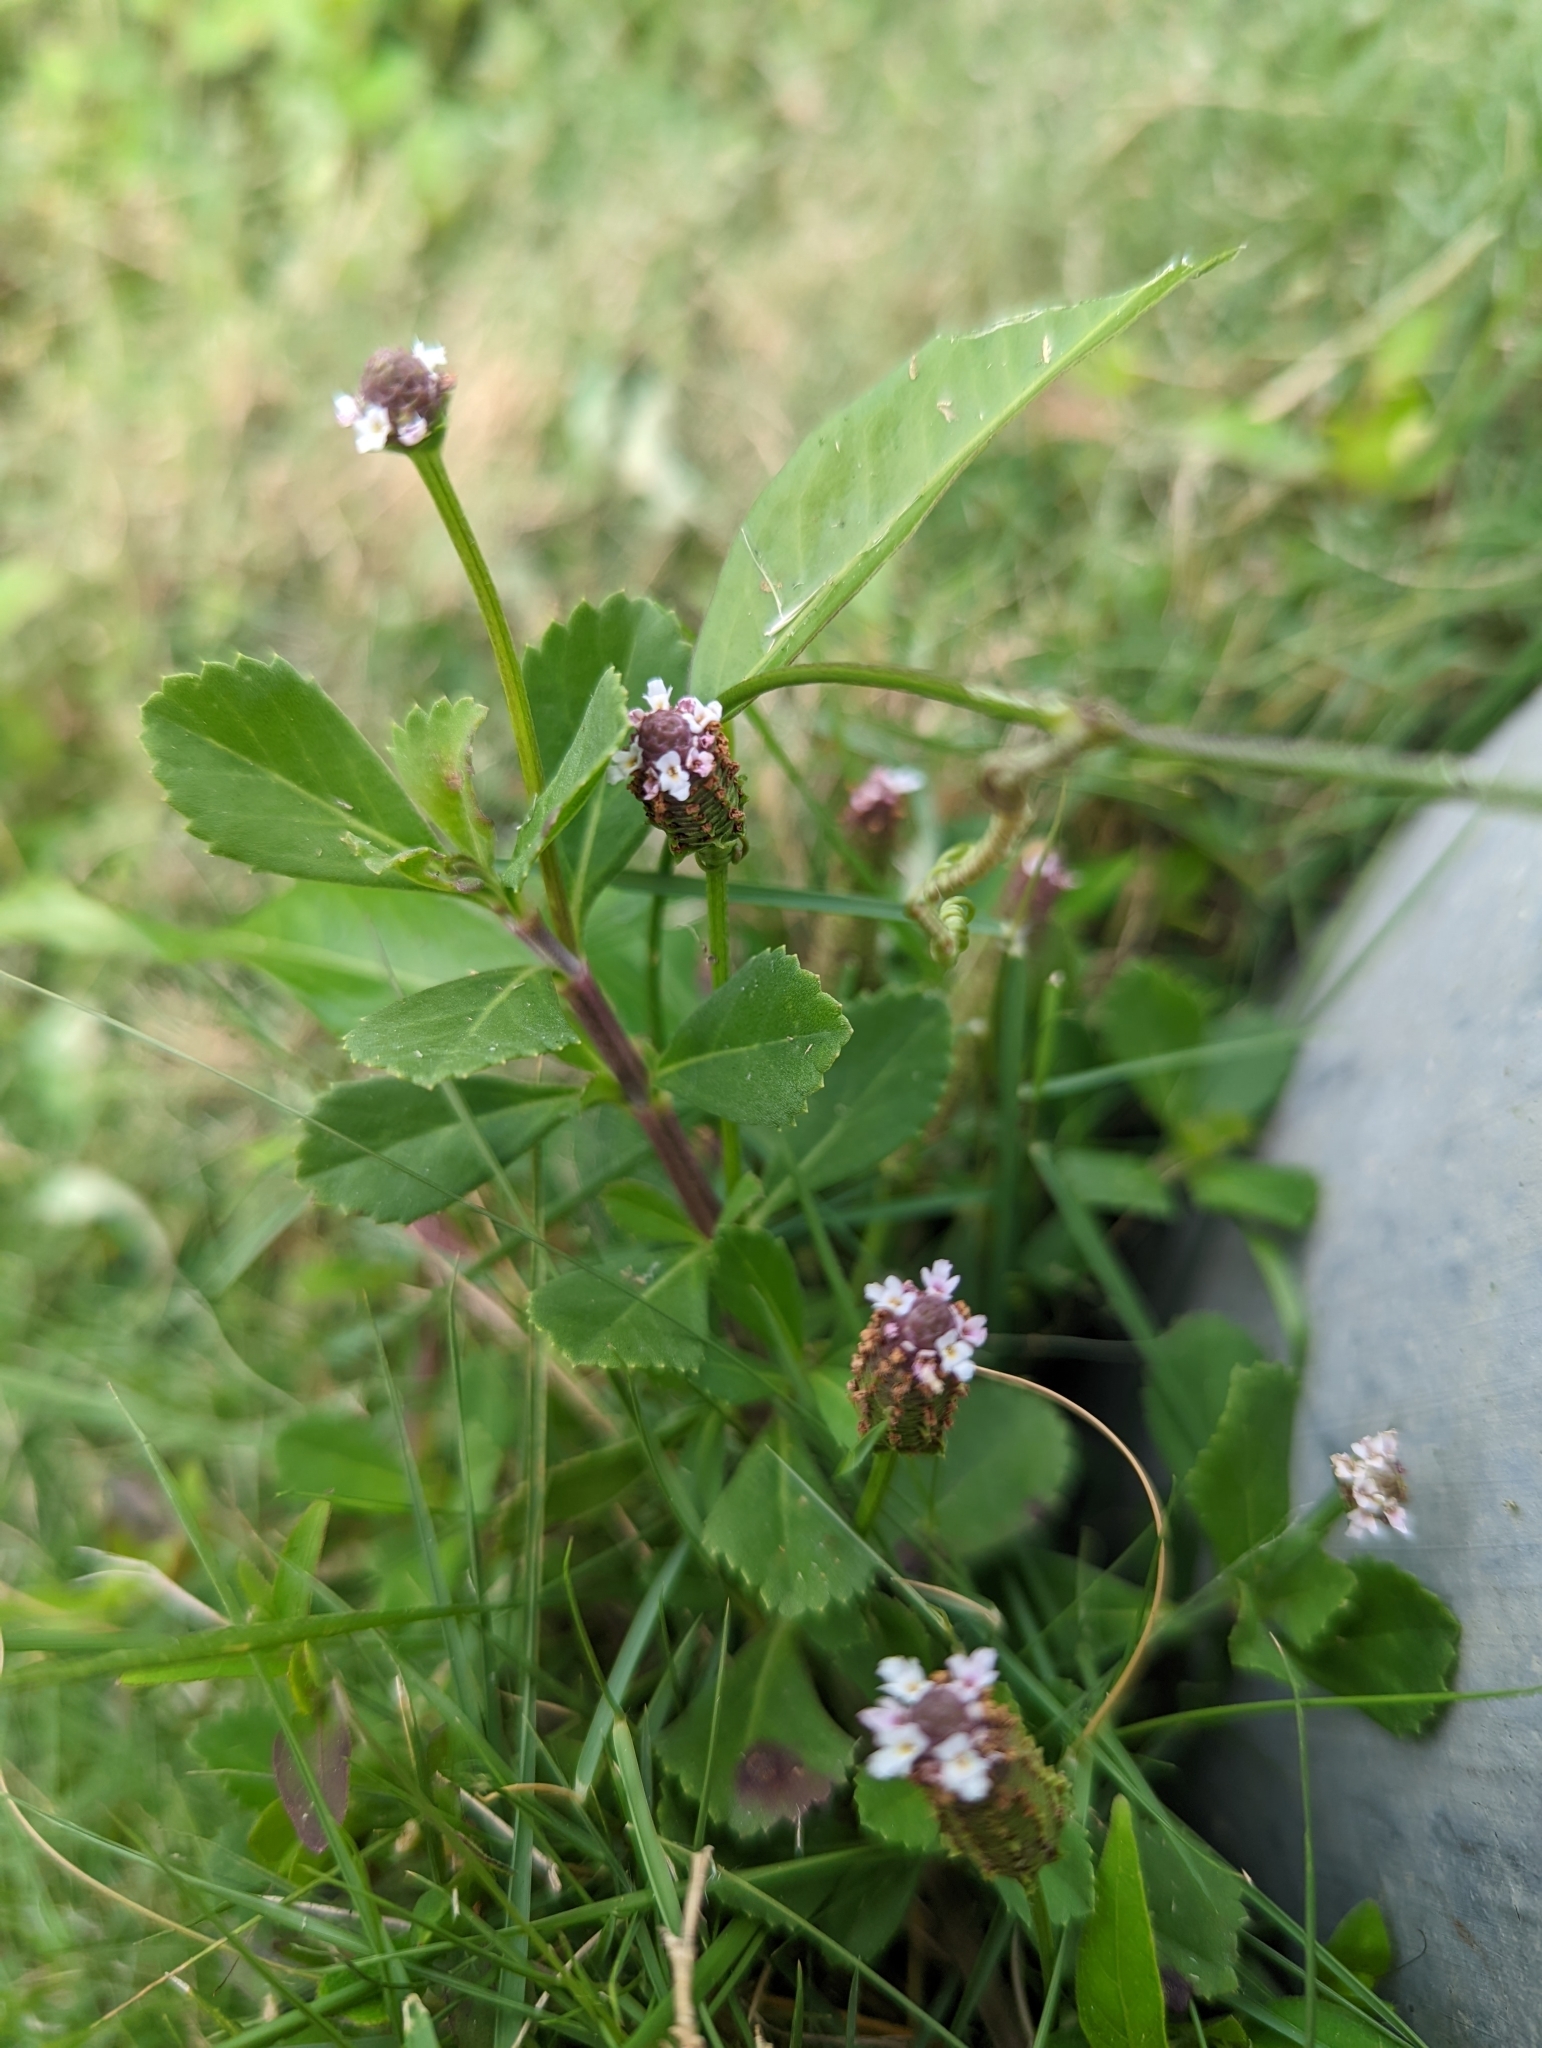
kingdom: Plantae
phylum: Tracheophyta
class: Magnoliopsida
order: Lamiales
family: Verbenaceae
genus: Phyla
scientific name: Phyla nodiflora
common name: Frogfruit
